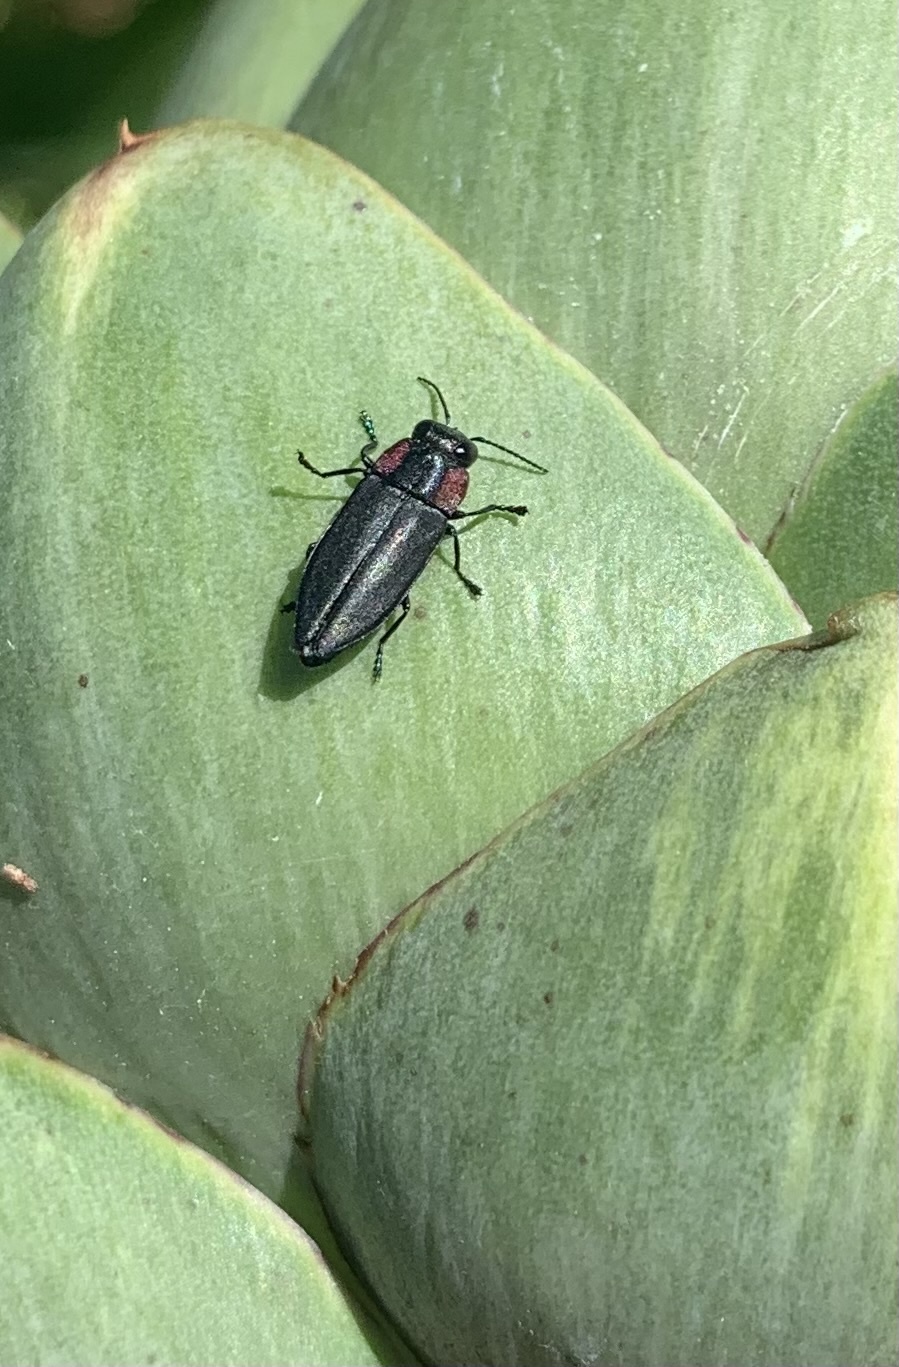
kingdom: Animalia
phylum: Arthropoda
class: Insecta
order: Coleoptera
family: Buprestidae
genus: Romanophora
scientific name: Romanophora verecunda
